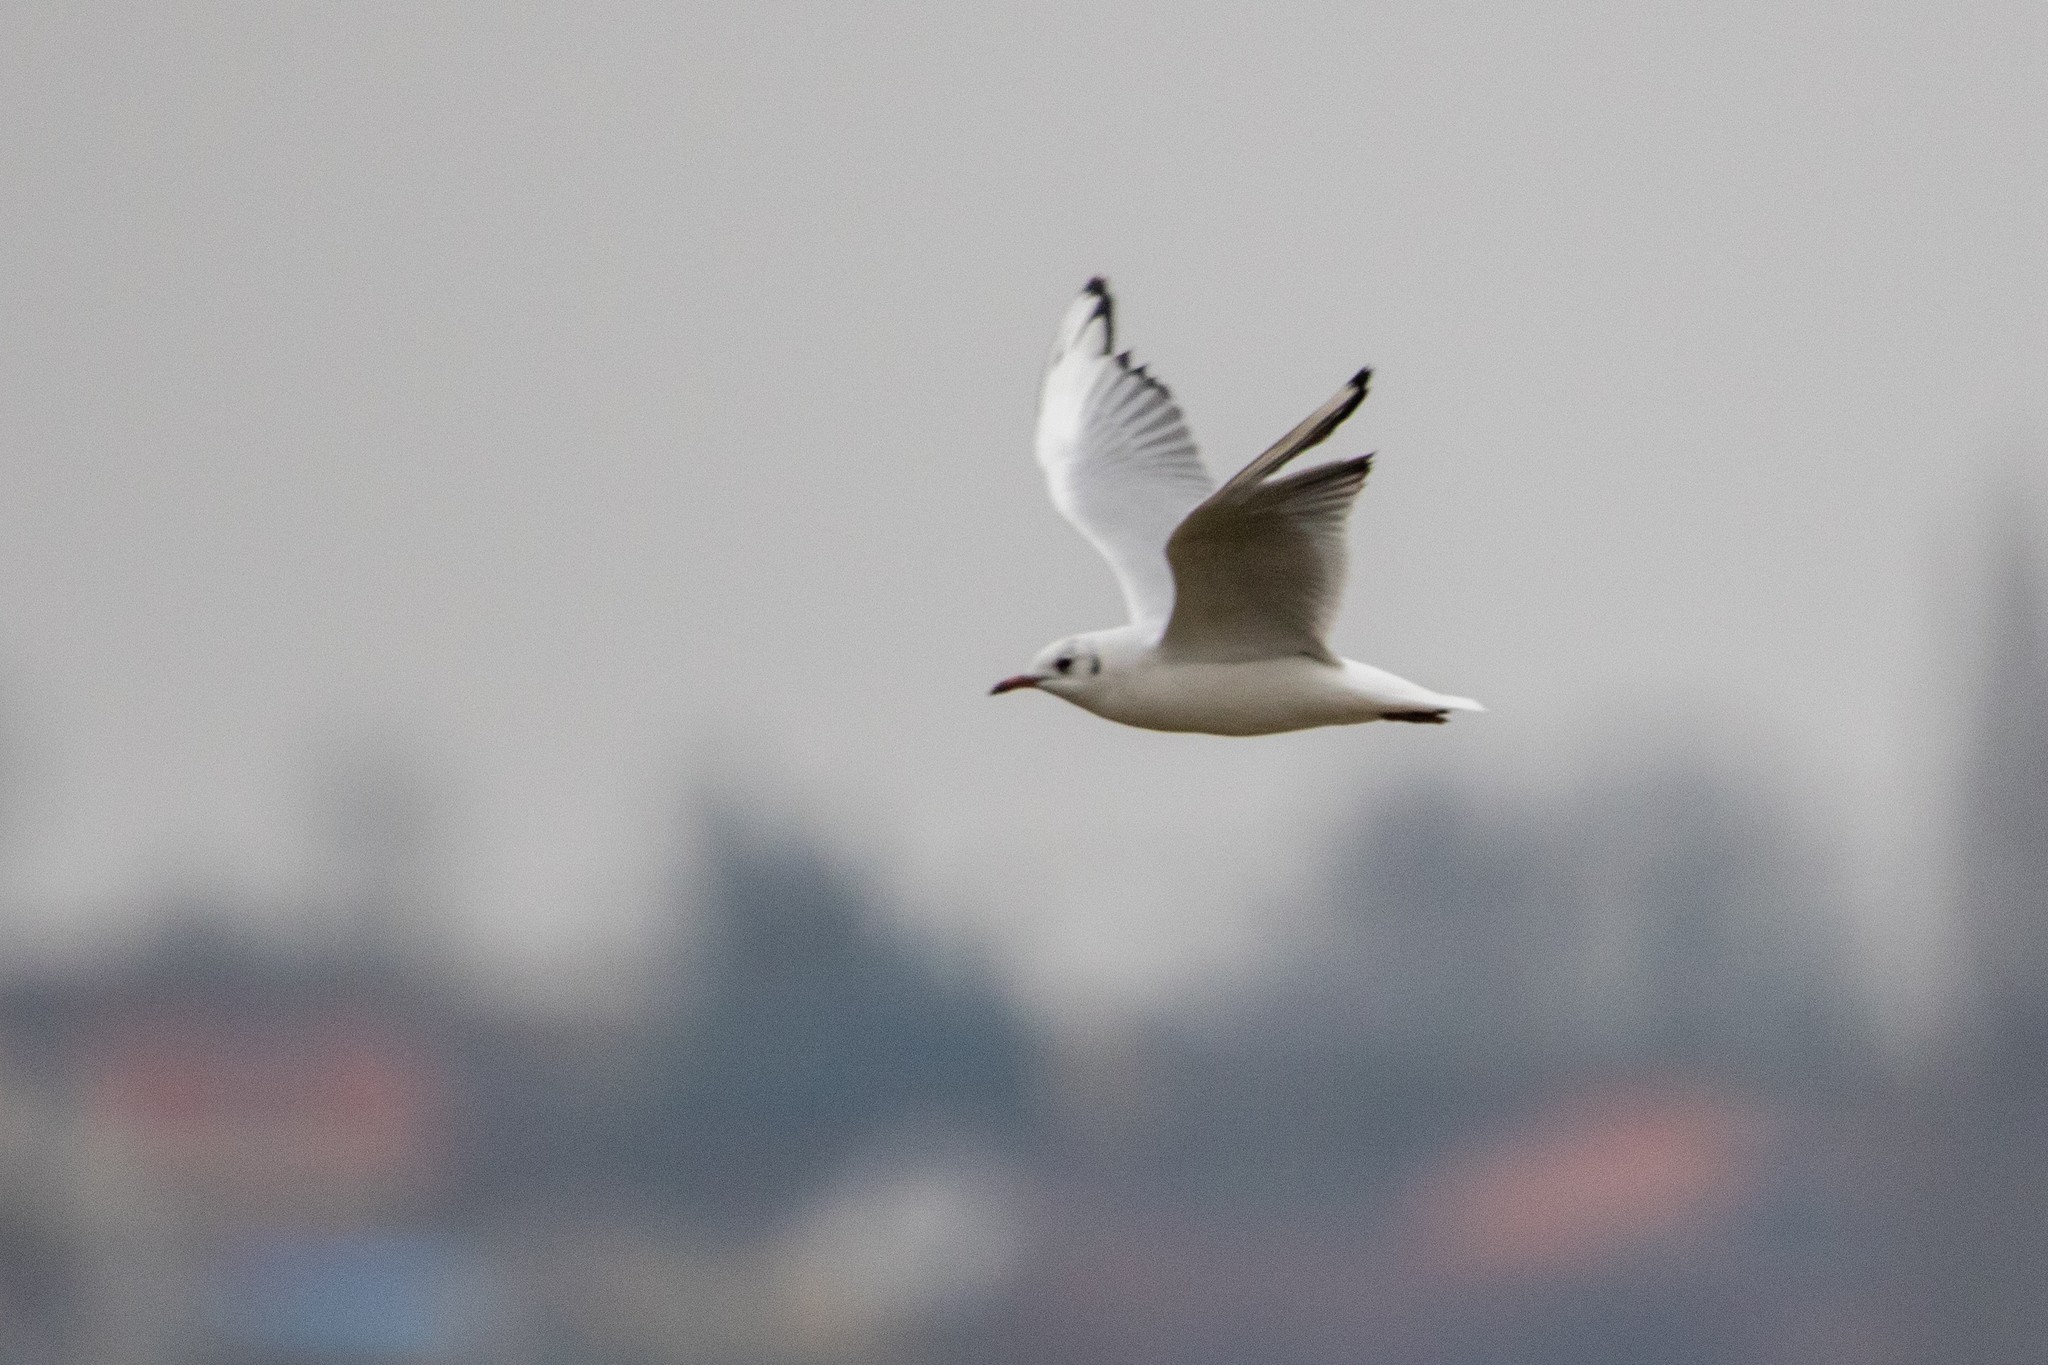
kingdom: Animalia
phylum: Chordata
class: Aves
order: Charadriiformes
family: Laridae
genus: Chroicocephalus
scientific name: Chroicocephalus ridibundus
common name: Black-headed gull
